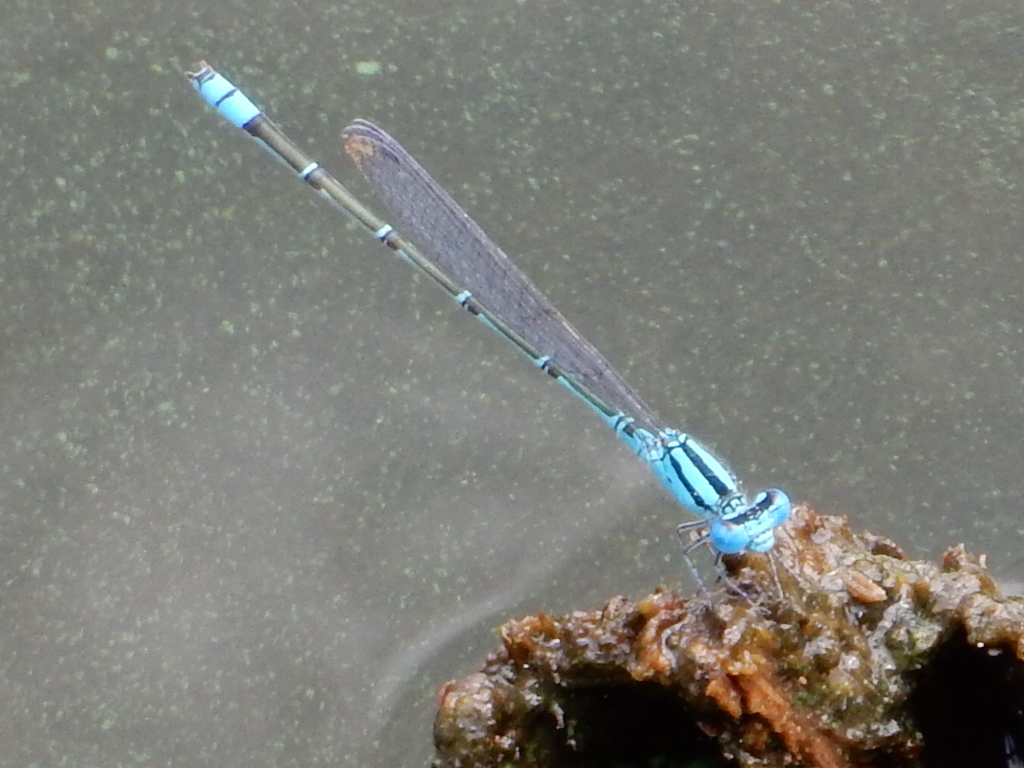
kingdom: Animalia
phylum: Arthropoda
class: Insecta
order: Odonata
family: Coenagrionidae
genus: Pseudagrion
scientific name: Pseudagrion microcephalum
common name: Blue riverdamsel
